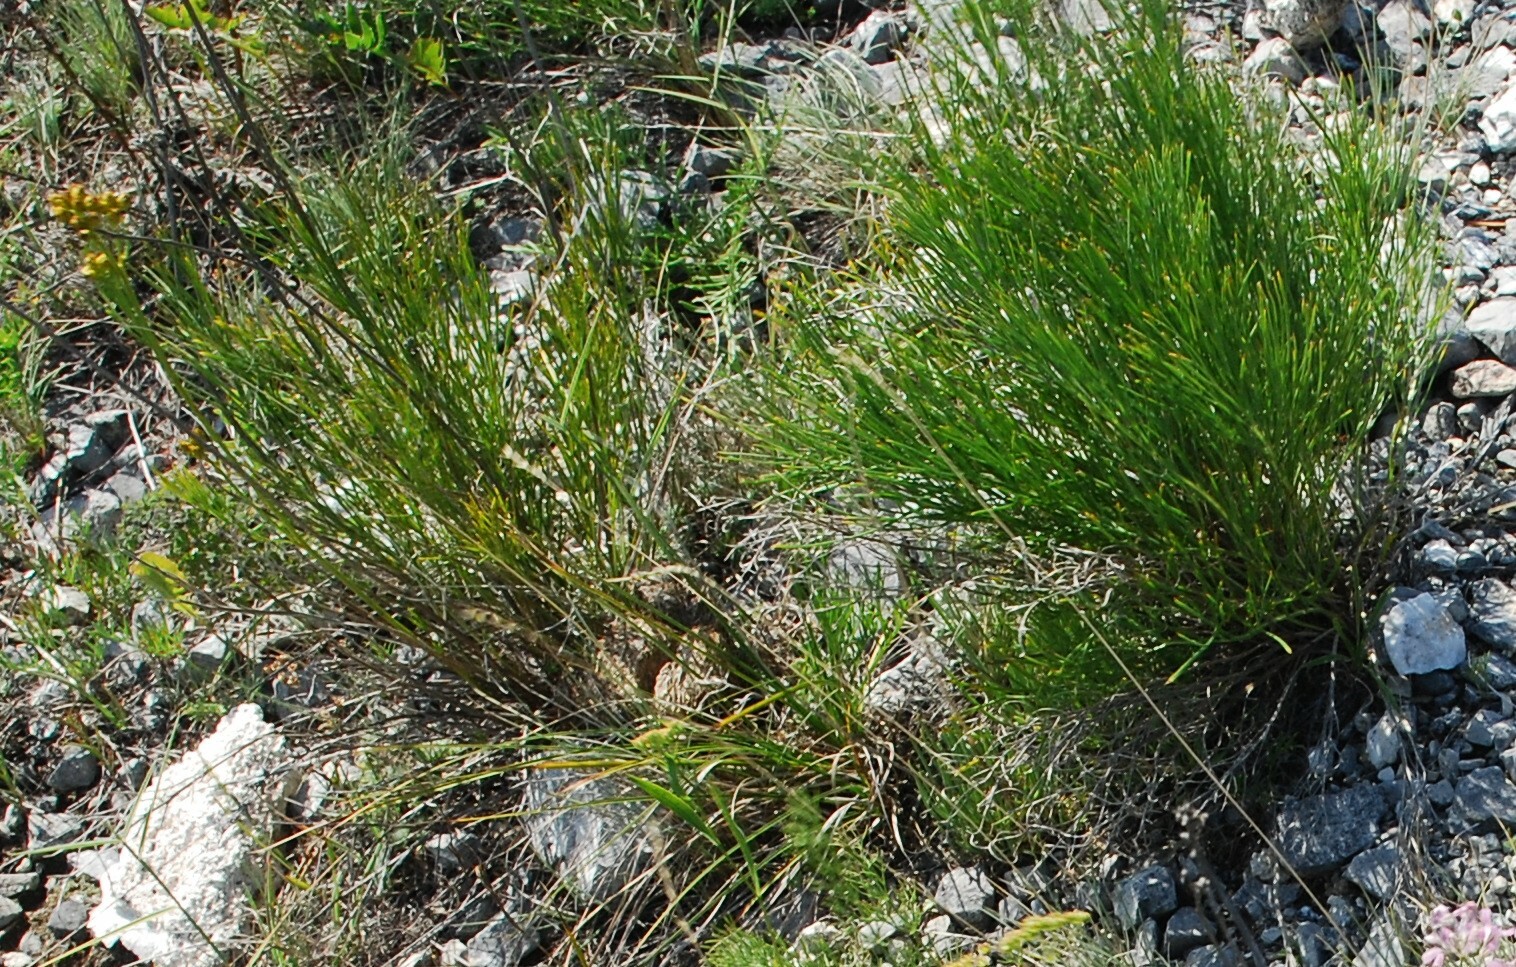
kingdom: Plantae
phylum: Tracheophyta
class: Magnoliopsida
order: Asterales
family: Asteraceae
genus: Filifolium
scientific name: Filifolium sibiricum
